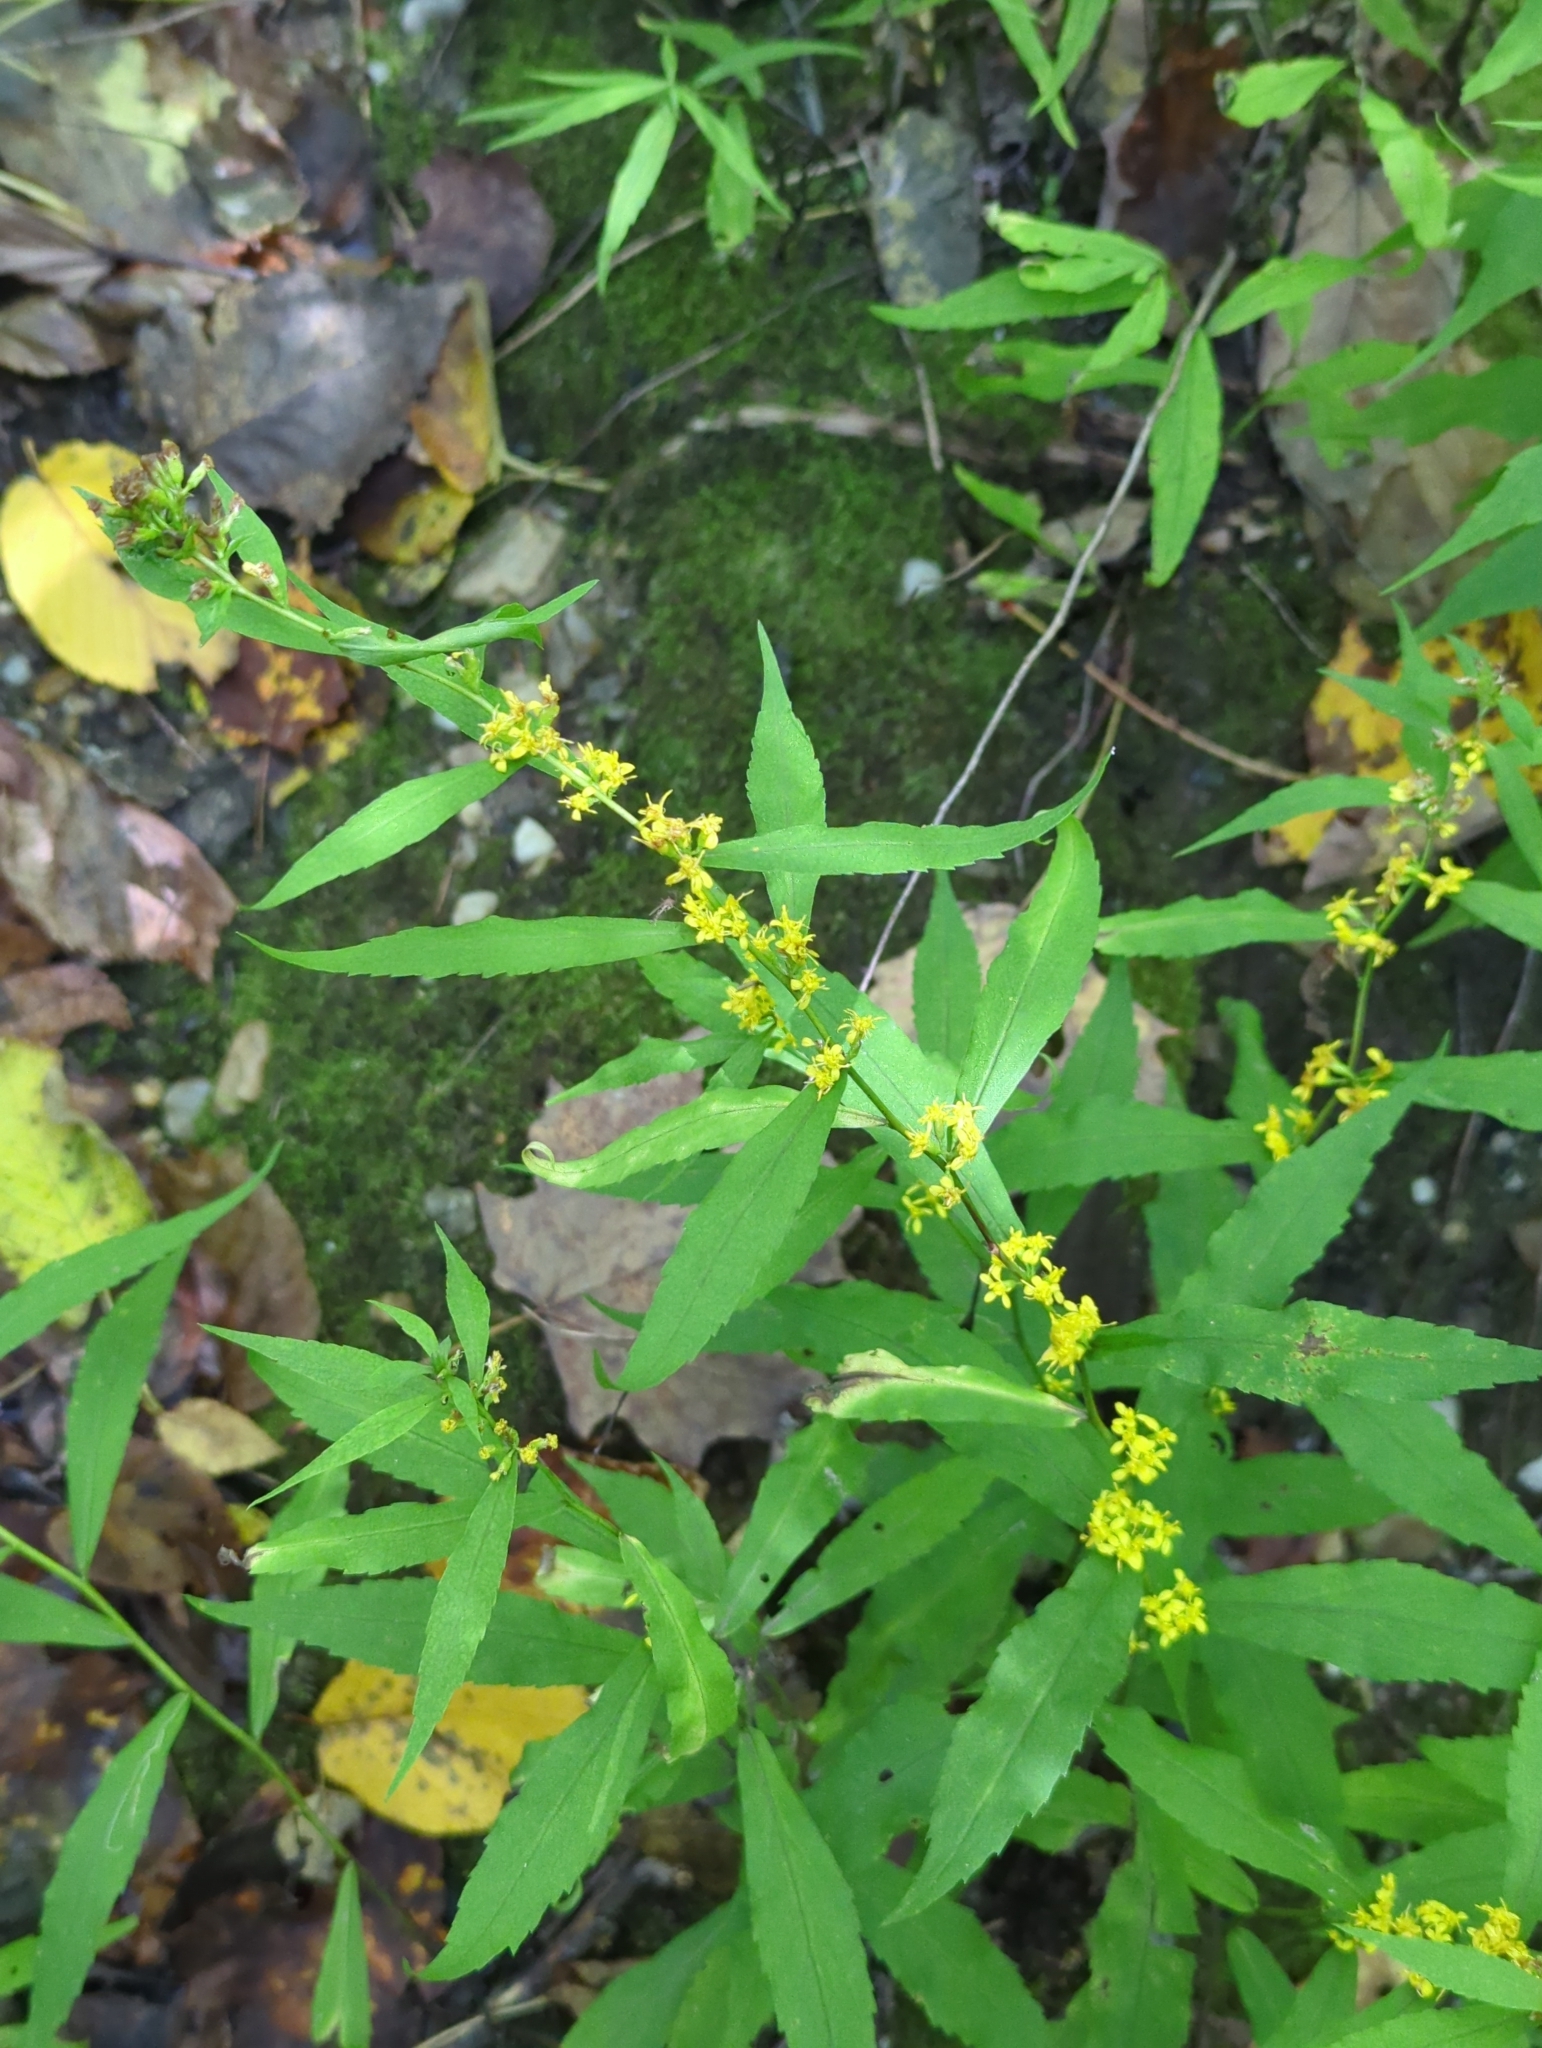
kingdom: Plantae
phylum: Tracheophyta
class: Magnoliopsida
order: Asterales
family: Asteraceae
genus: Solidago
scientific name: Solidago caesia
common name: Woodland goldenrod
